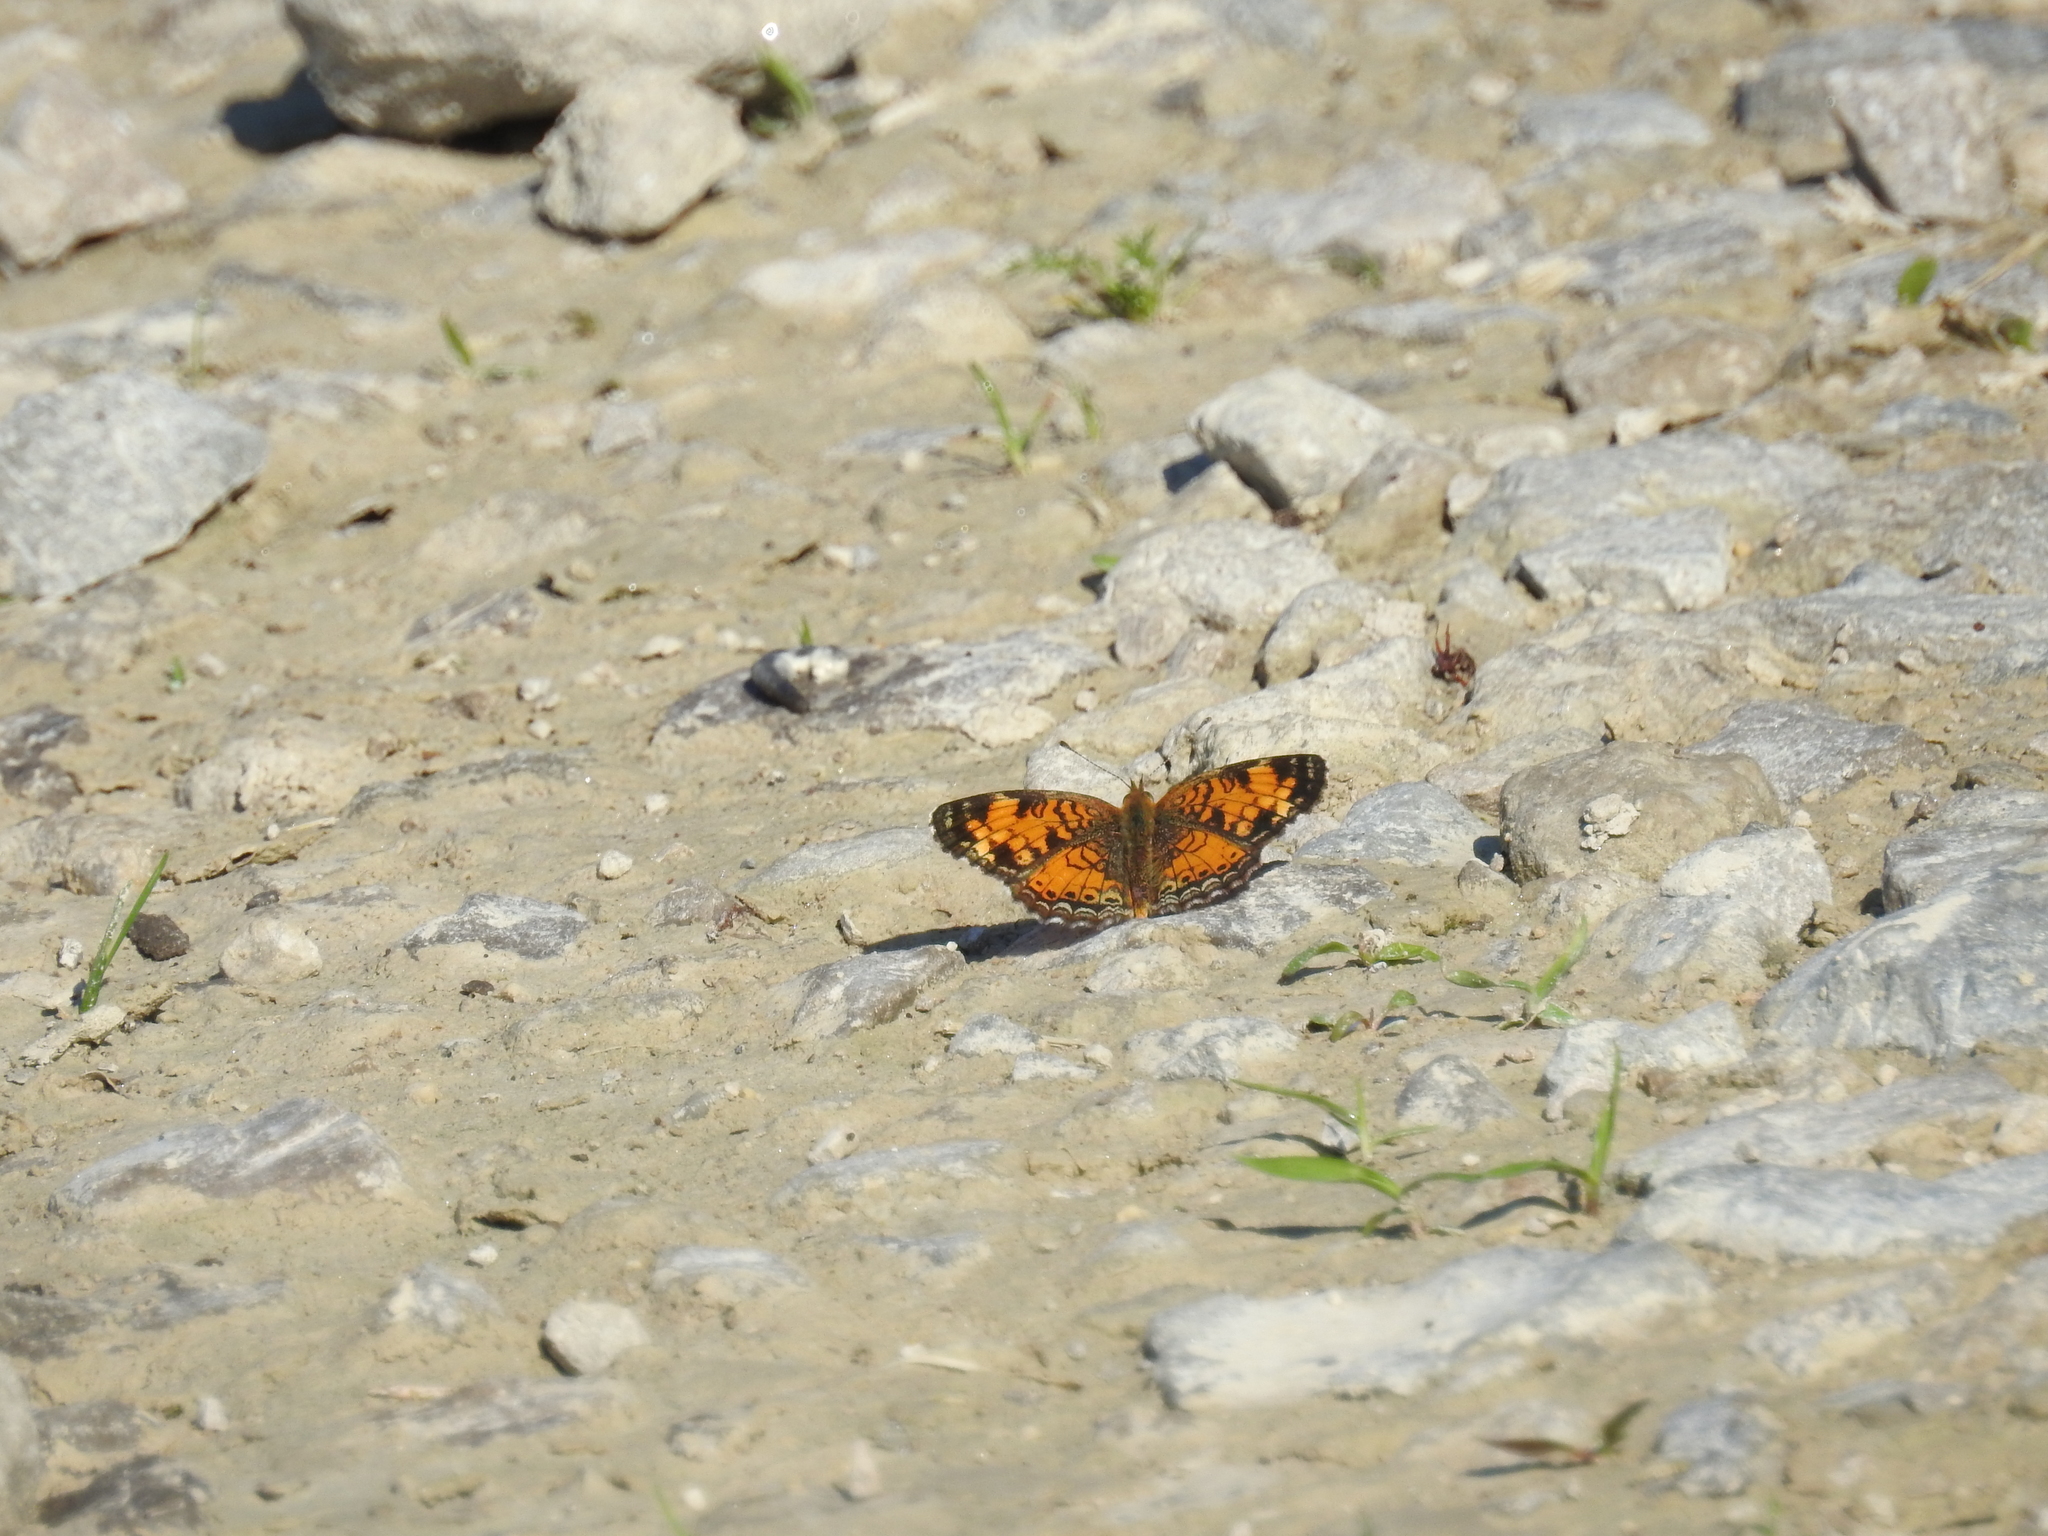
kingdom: Animalia
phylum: Arthropoda
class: Insecta
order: Lepidoptera
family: Nymphalidae
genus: Phyciodes
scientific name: Phyciodes tharos
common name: Pearl crescent
